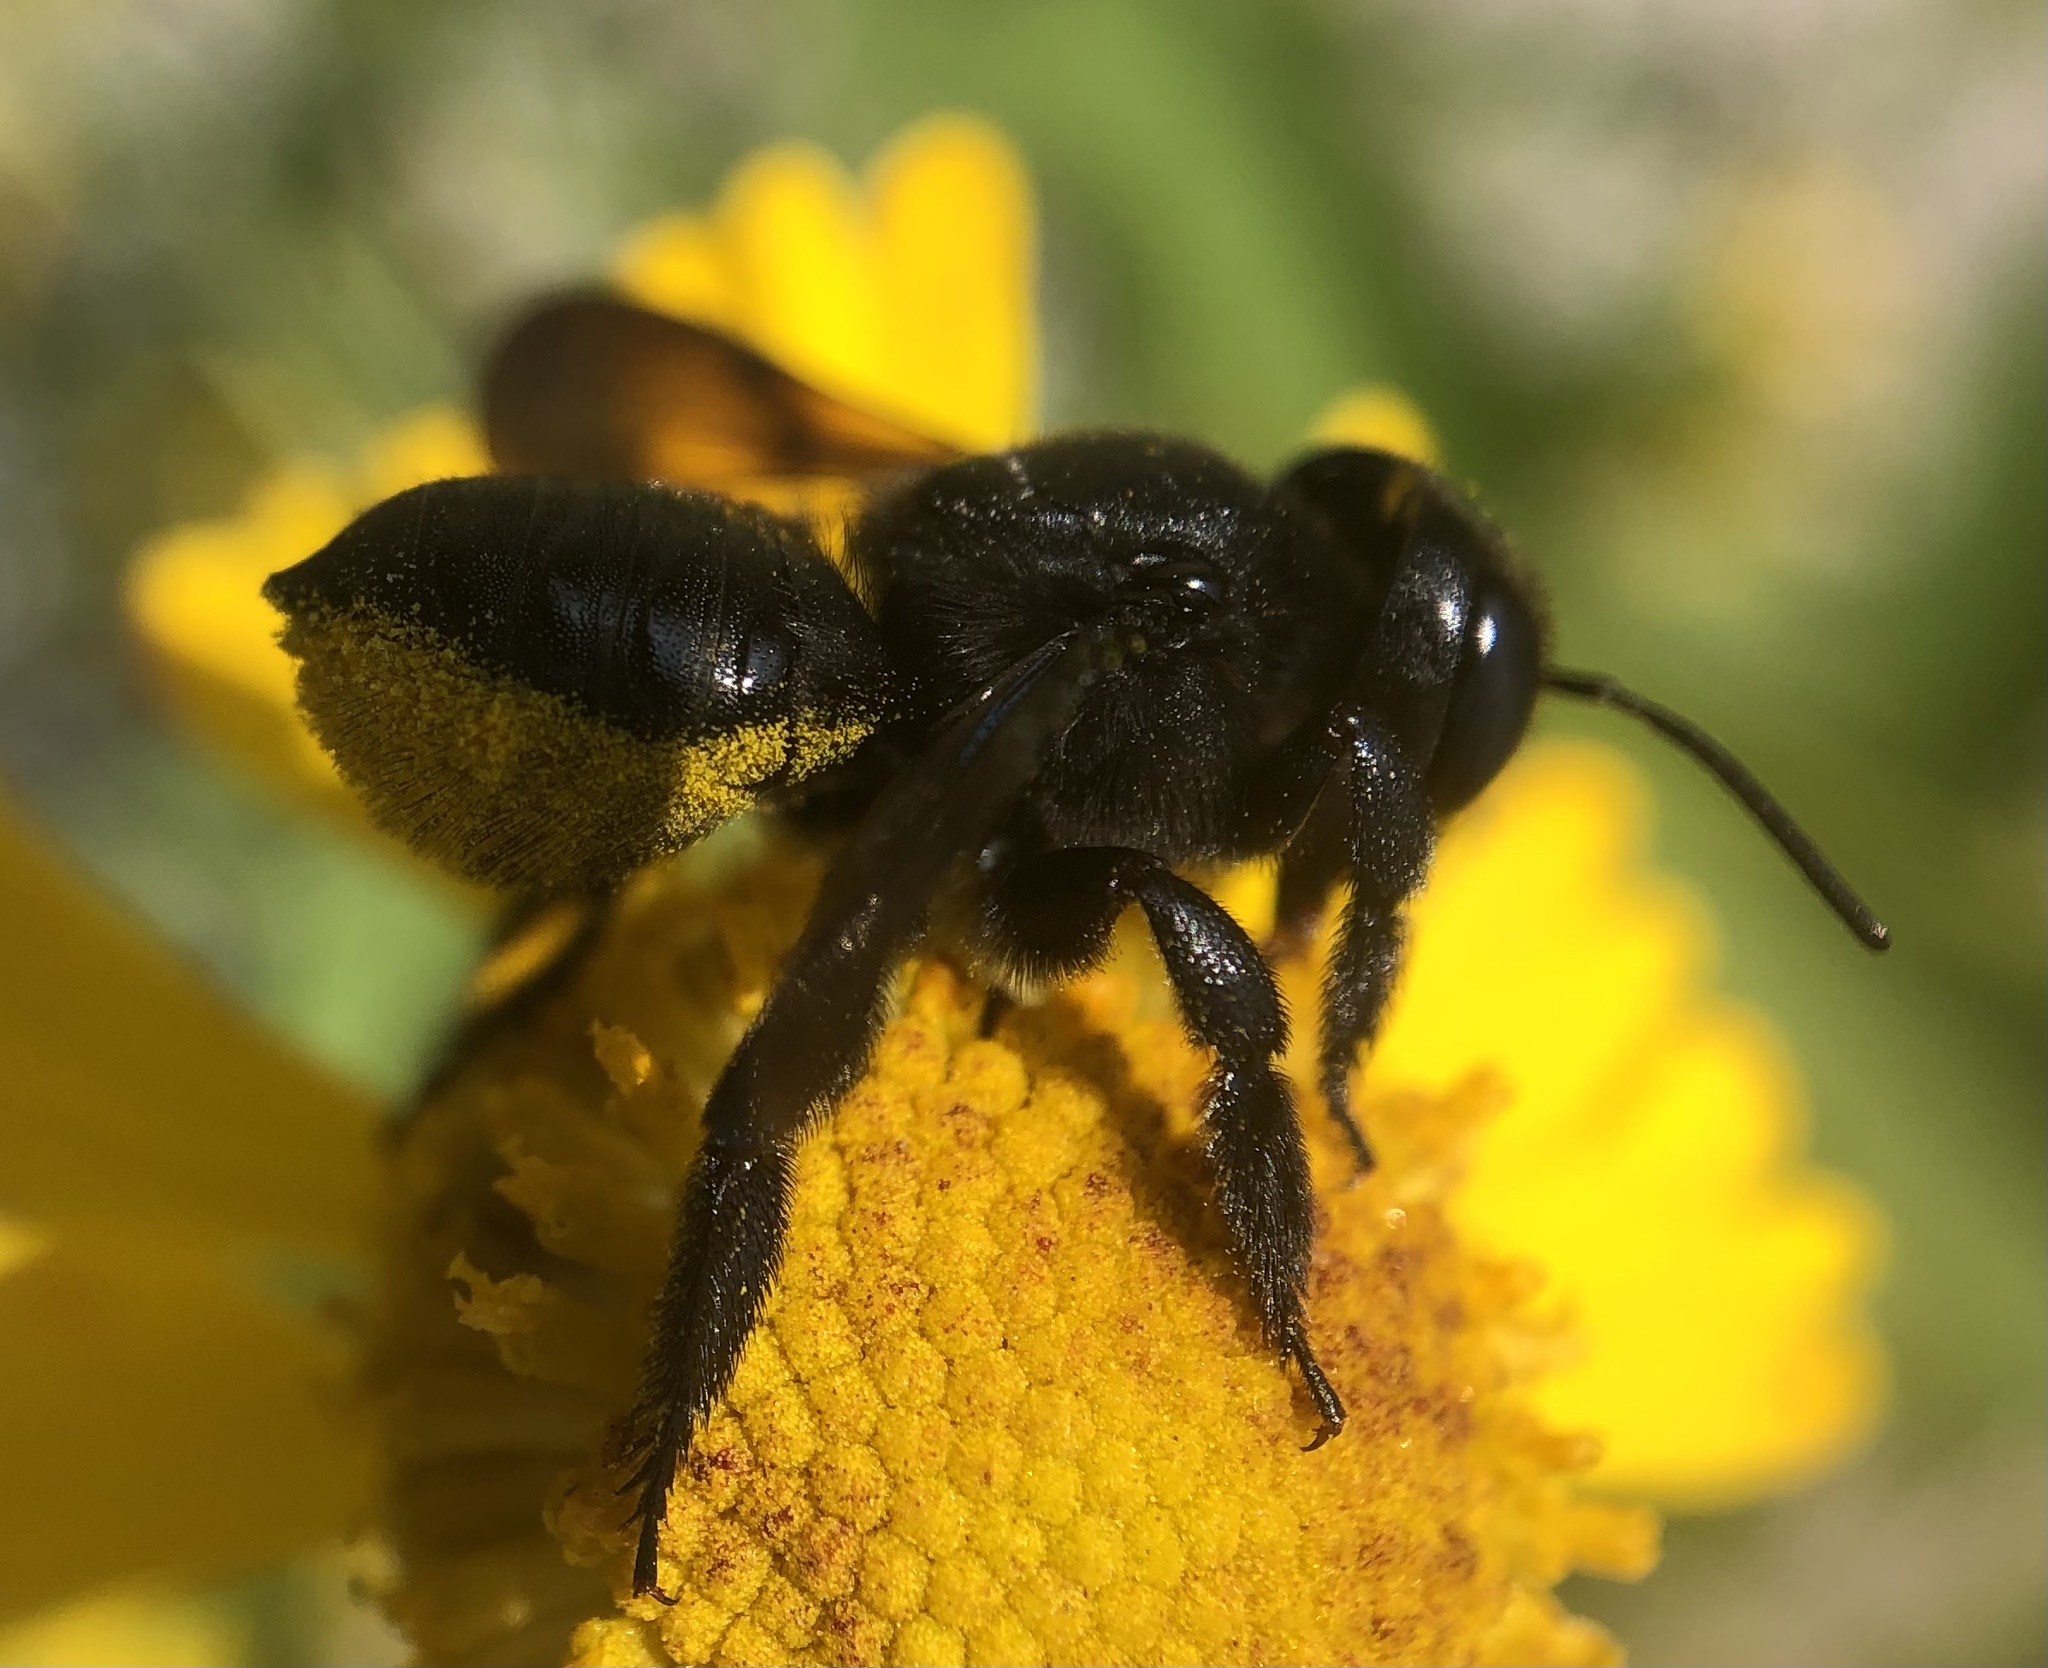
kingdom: Animalia
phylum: Arthropoda
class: Insecta
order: Hymenoptera
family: Megachilidae
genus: Megachile
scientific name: Megachile xylocopoides
